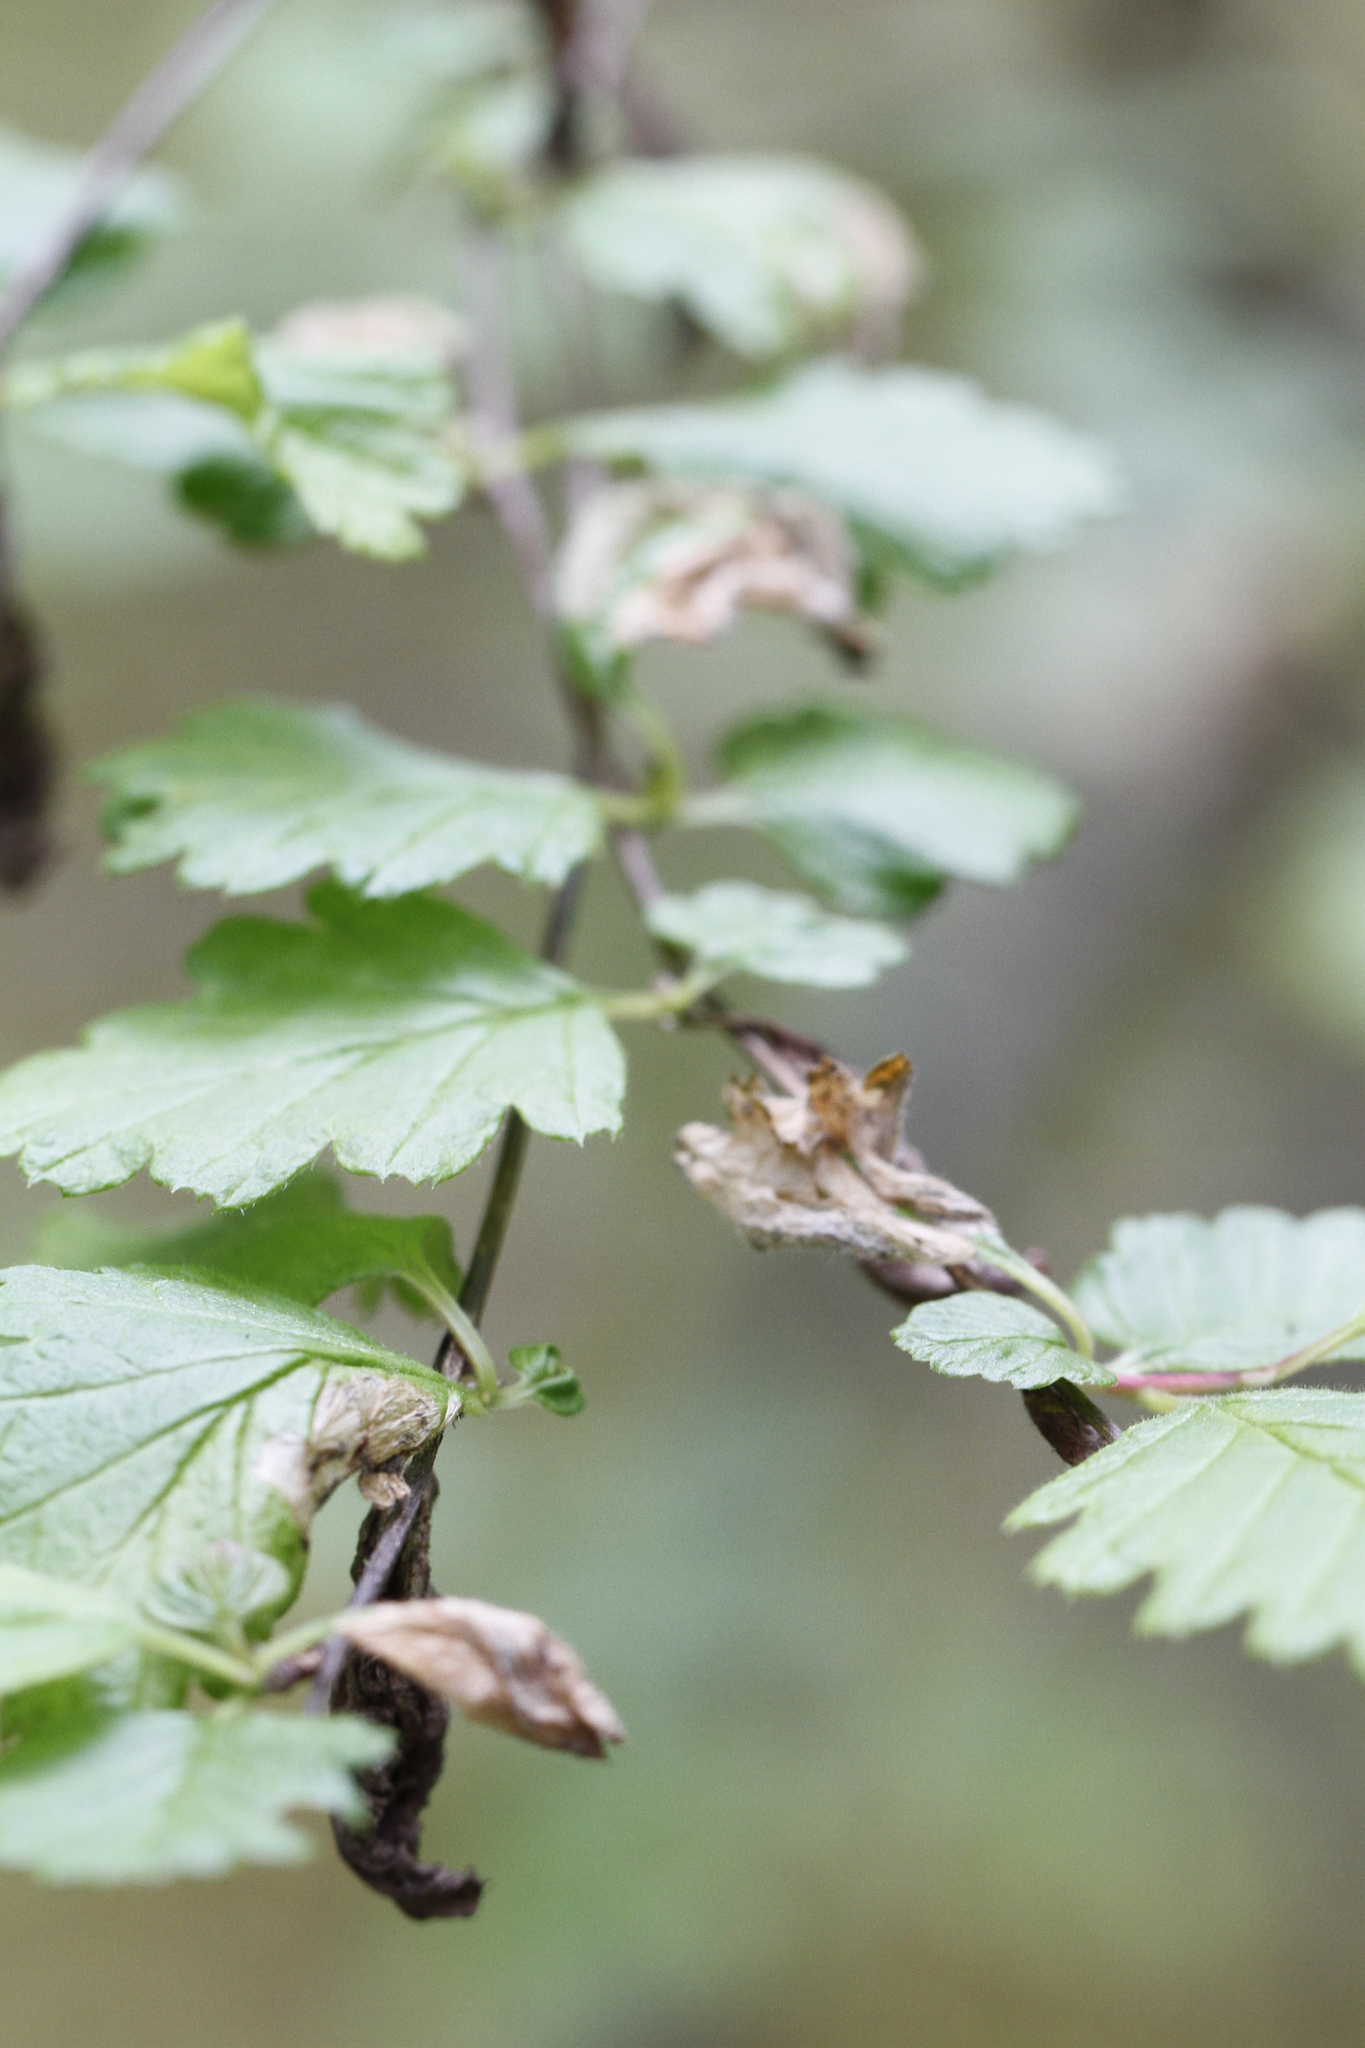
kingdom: Animalia
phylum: Arthropoda
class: Insecta
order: Lepidoptera
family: Eriocraniidae
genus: Eriocrania
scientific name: Eriocrania semipurpurella
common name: Early purple
